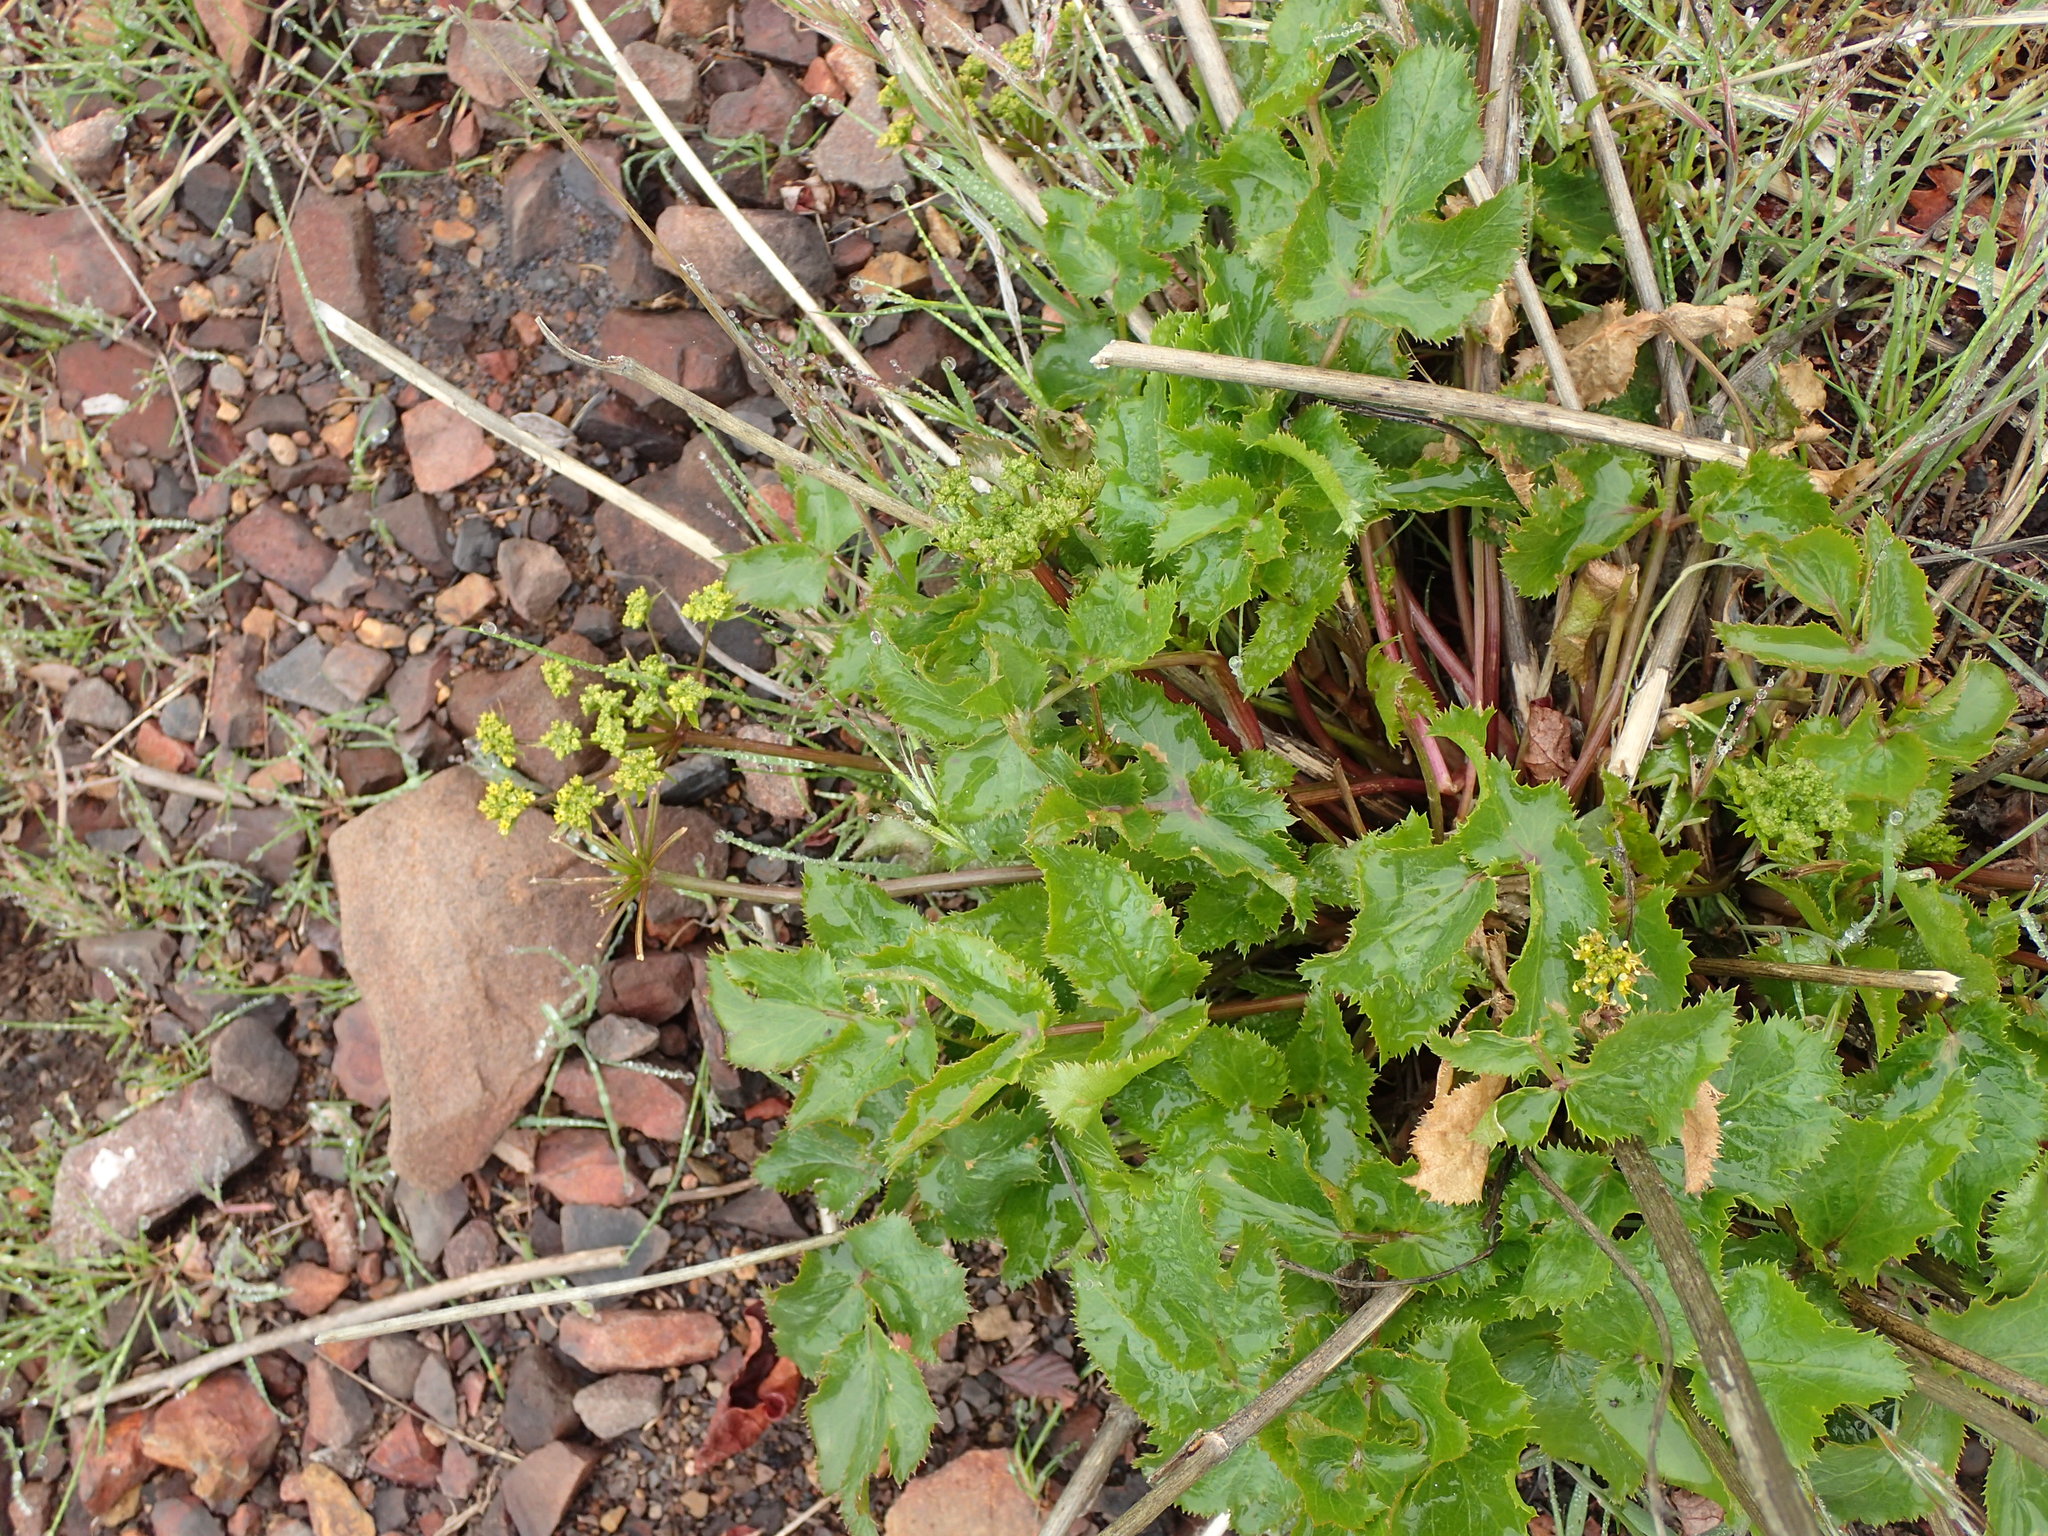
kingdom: Plantae
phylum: Tracheophyta
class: Magnoliopsida
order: Apiales
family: Apiaceae
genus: Tauschia
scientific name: Tauschia arguta
